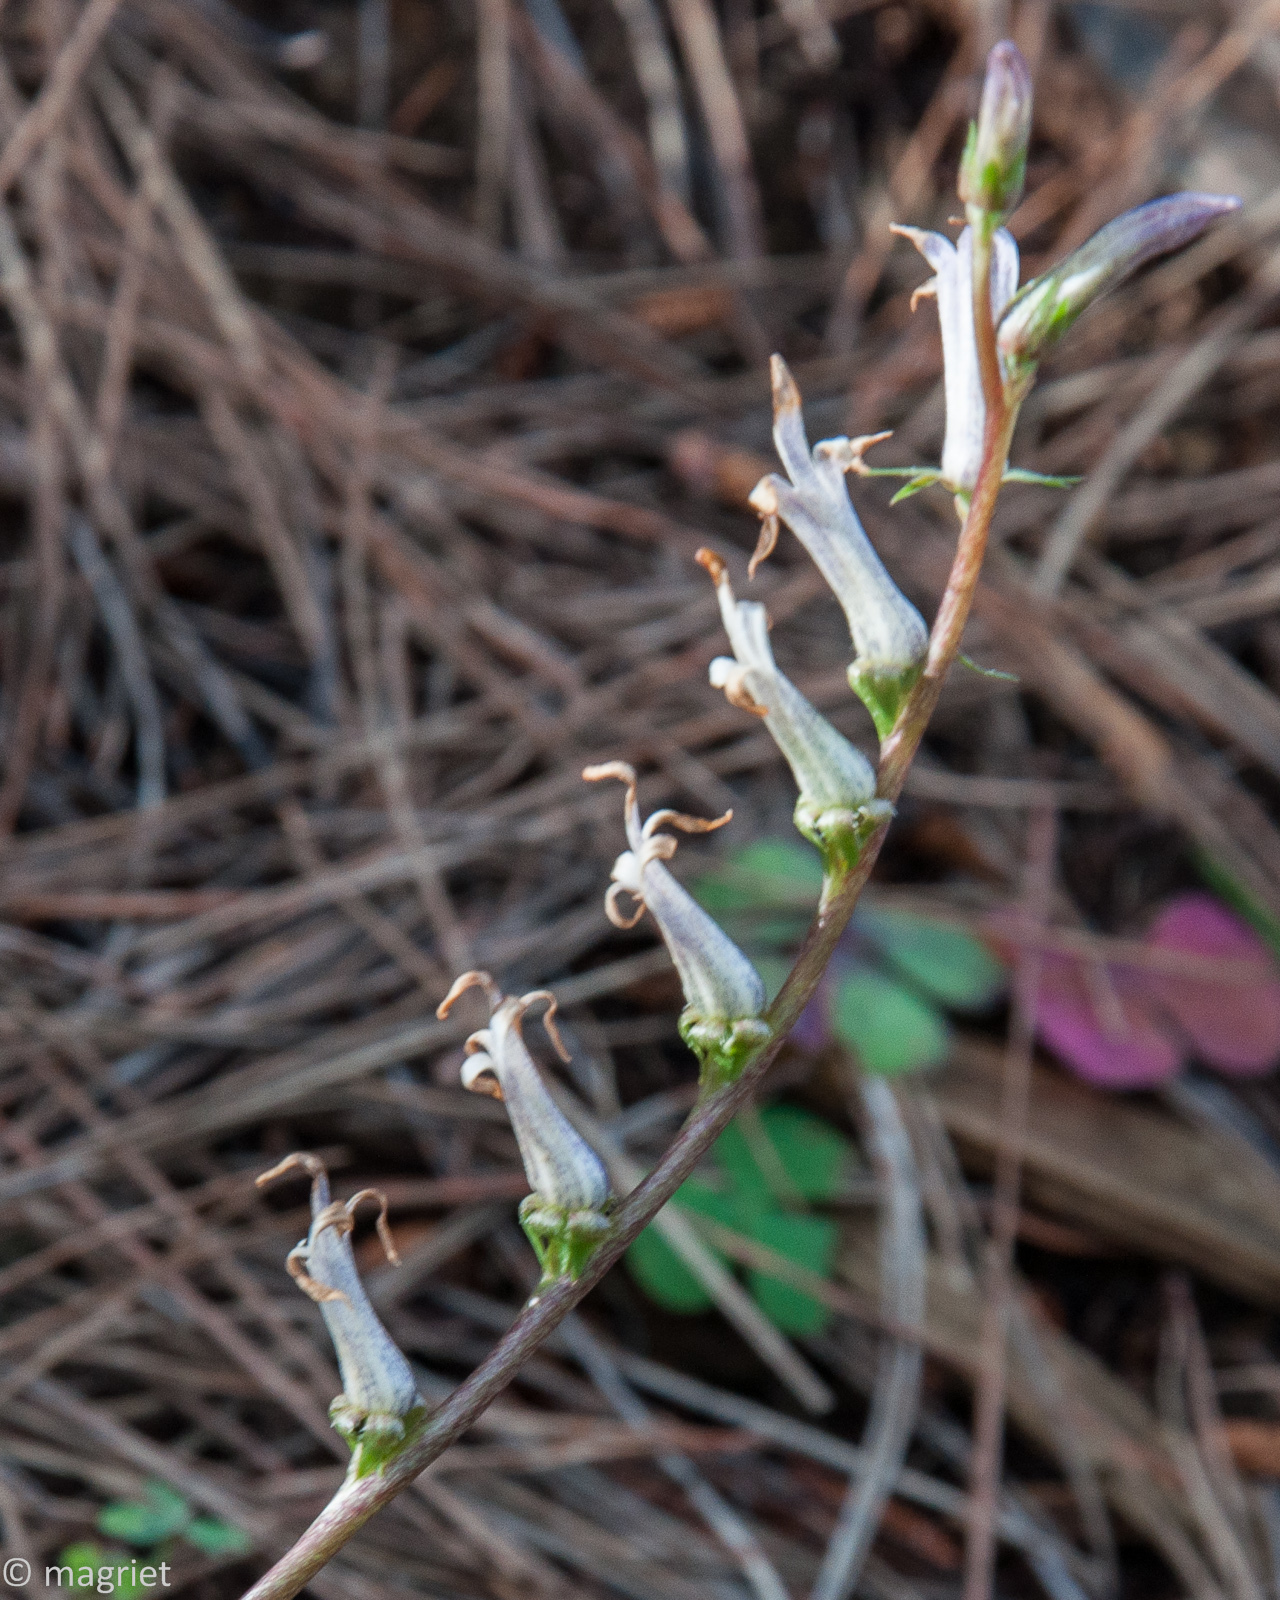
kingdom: Plantae
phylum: Tracheophyta
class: Magnoliopsida
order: Asterales
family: Campanulaceae
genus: Cyphia
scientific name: Cyphia phyteuma
